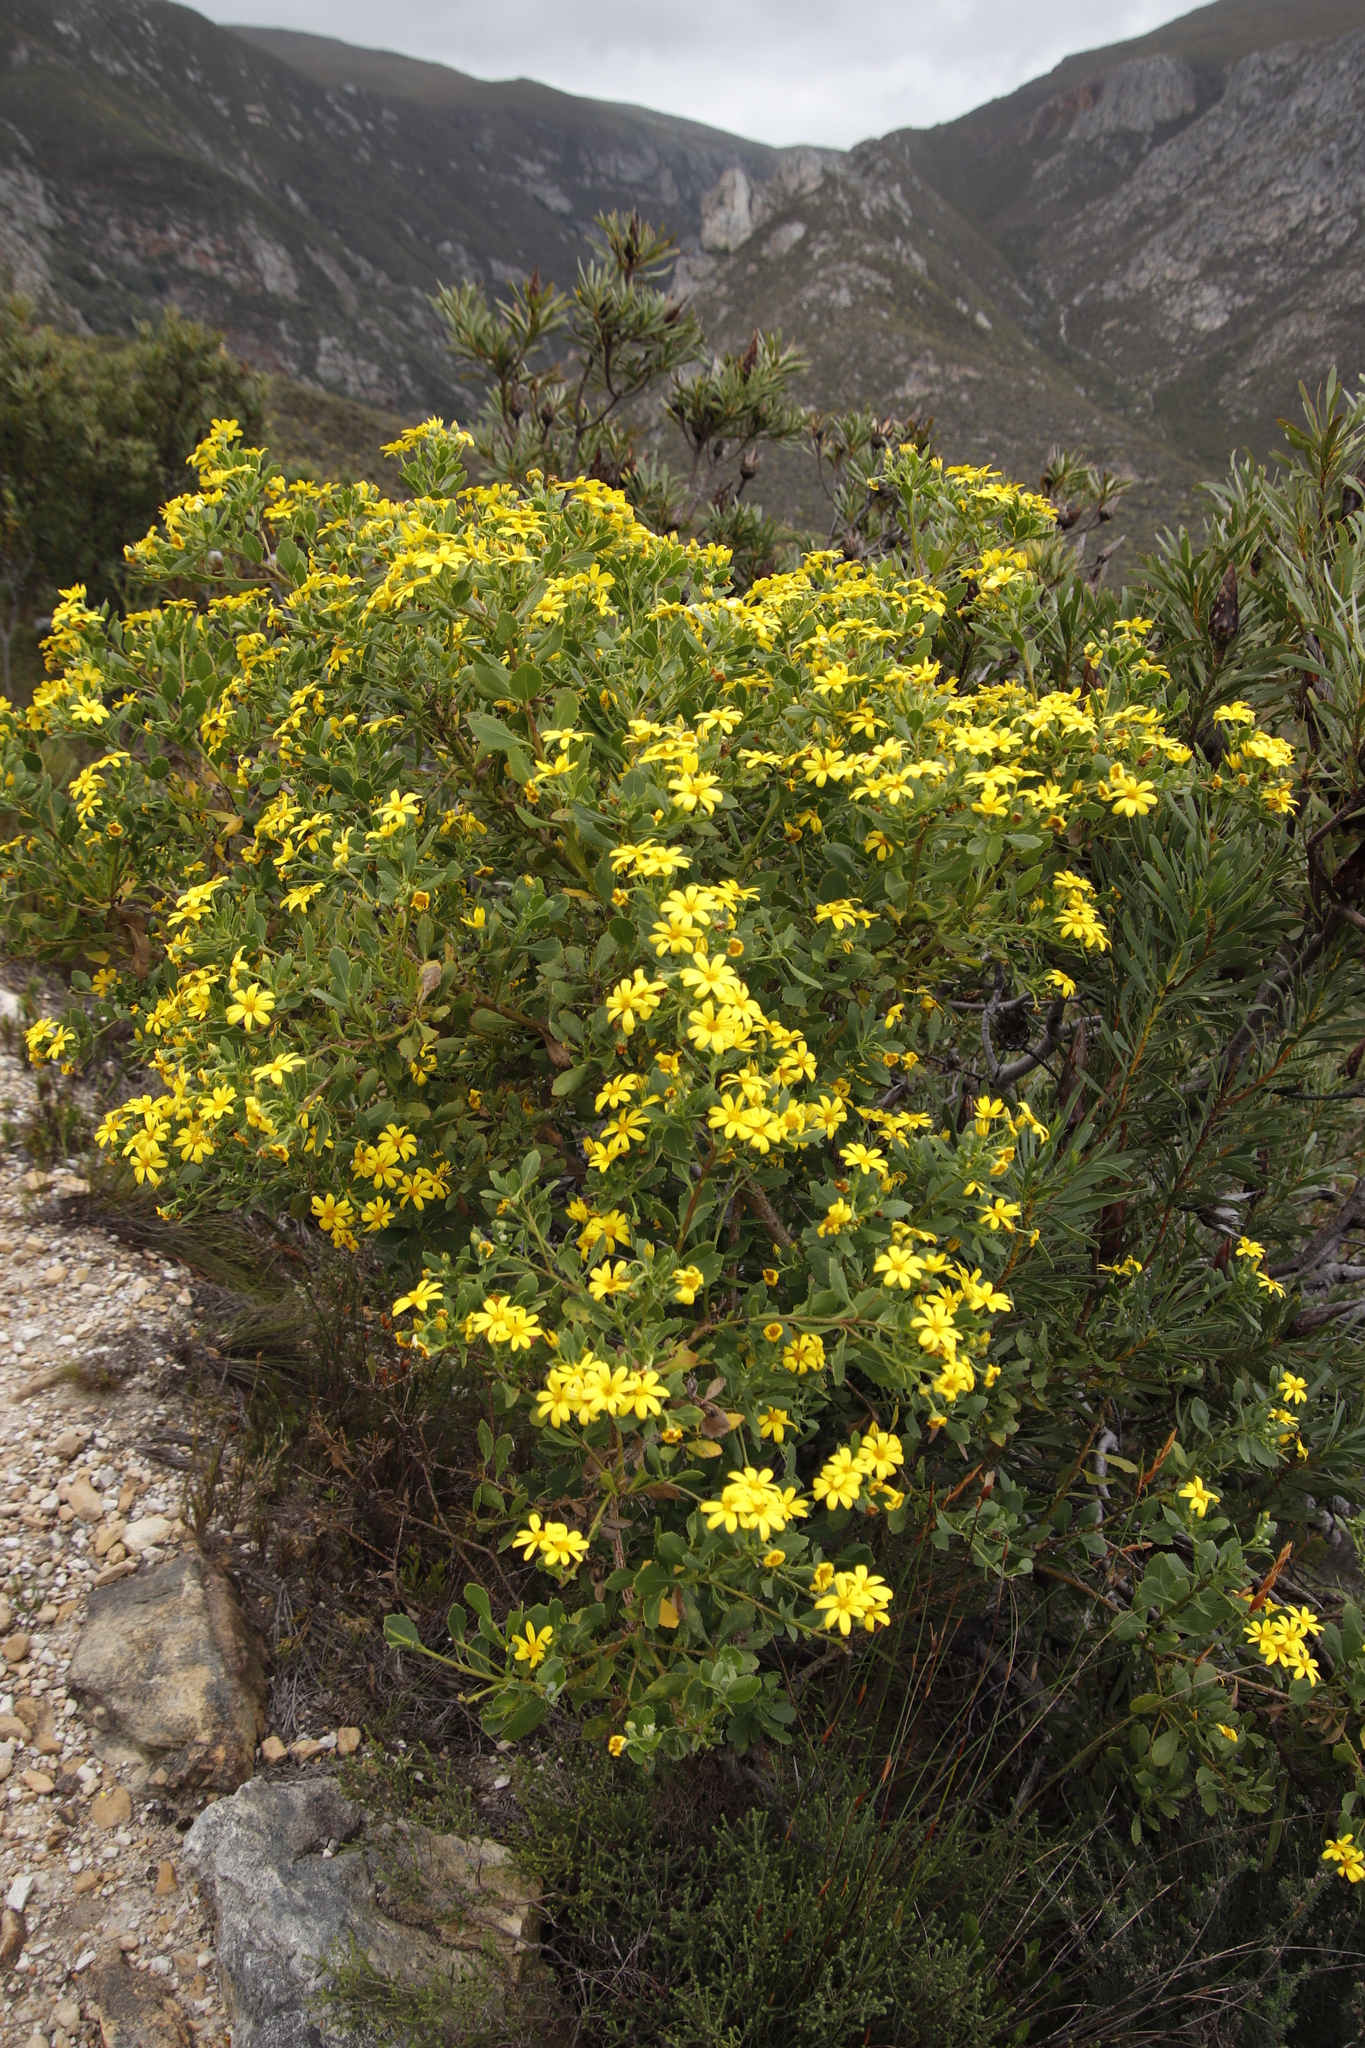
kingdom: Plantae
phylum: Tracheophyta
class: Magnoliopsida
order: Asterales
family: Asteraceae
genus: Osteospermum
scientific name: Osteospermum moniliferum
